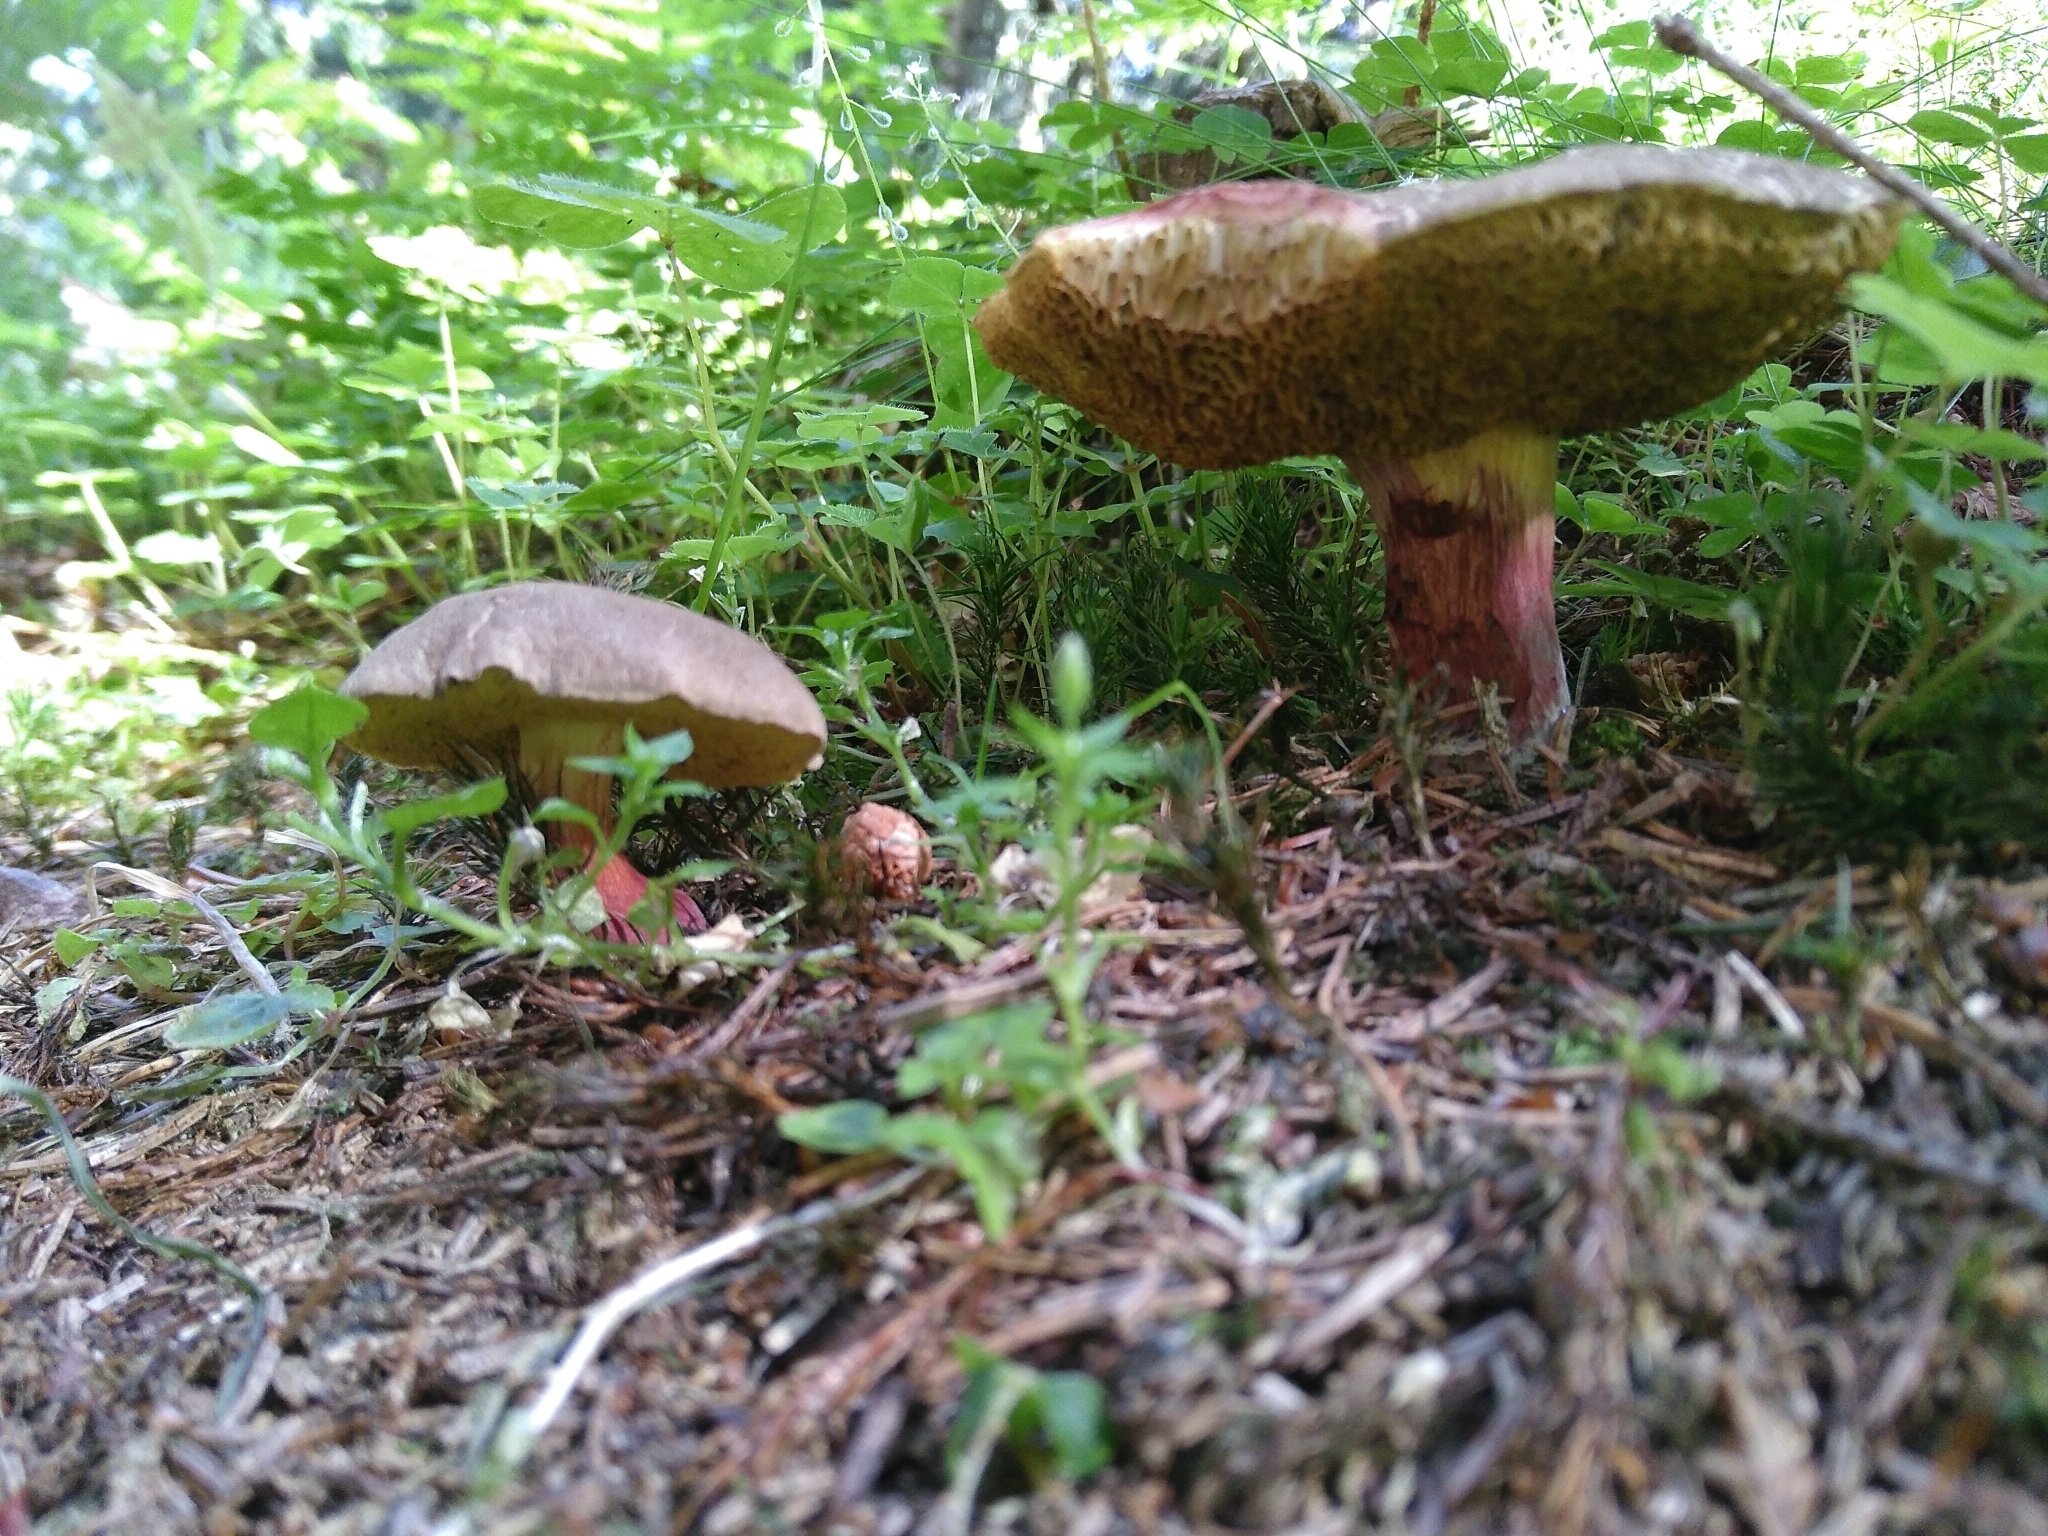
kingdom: Fungi
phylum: Basidiomycota
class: Agaricomycetes
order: Boletales
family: Boletaceae
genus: Xerocomellus
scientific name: Xerocomellus chrysenteron
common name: Red-cracking bolete
